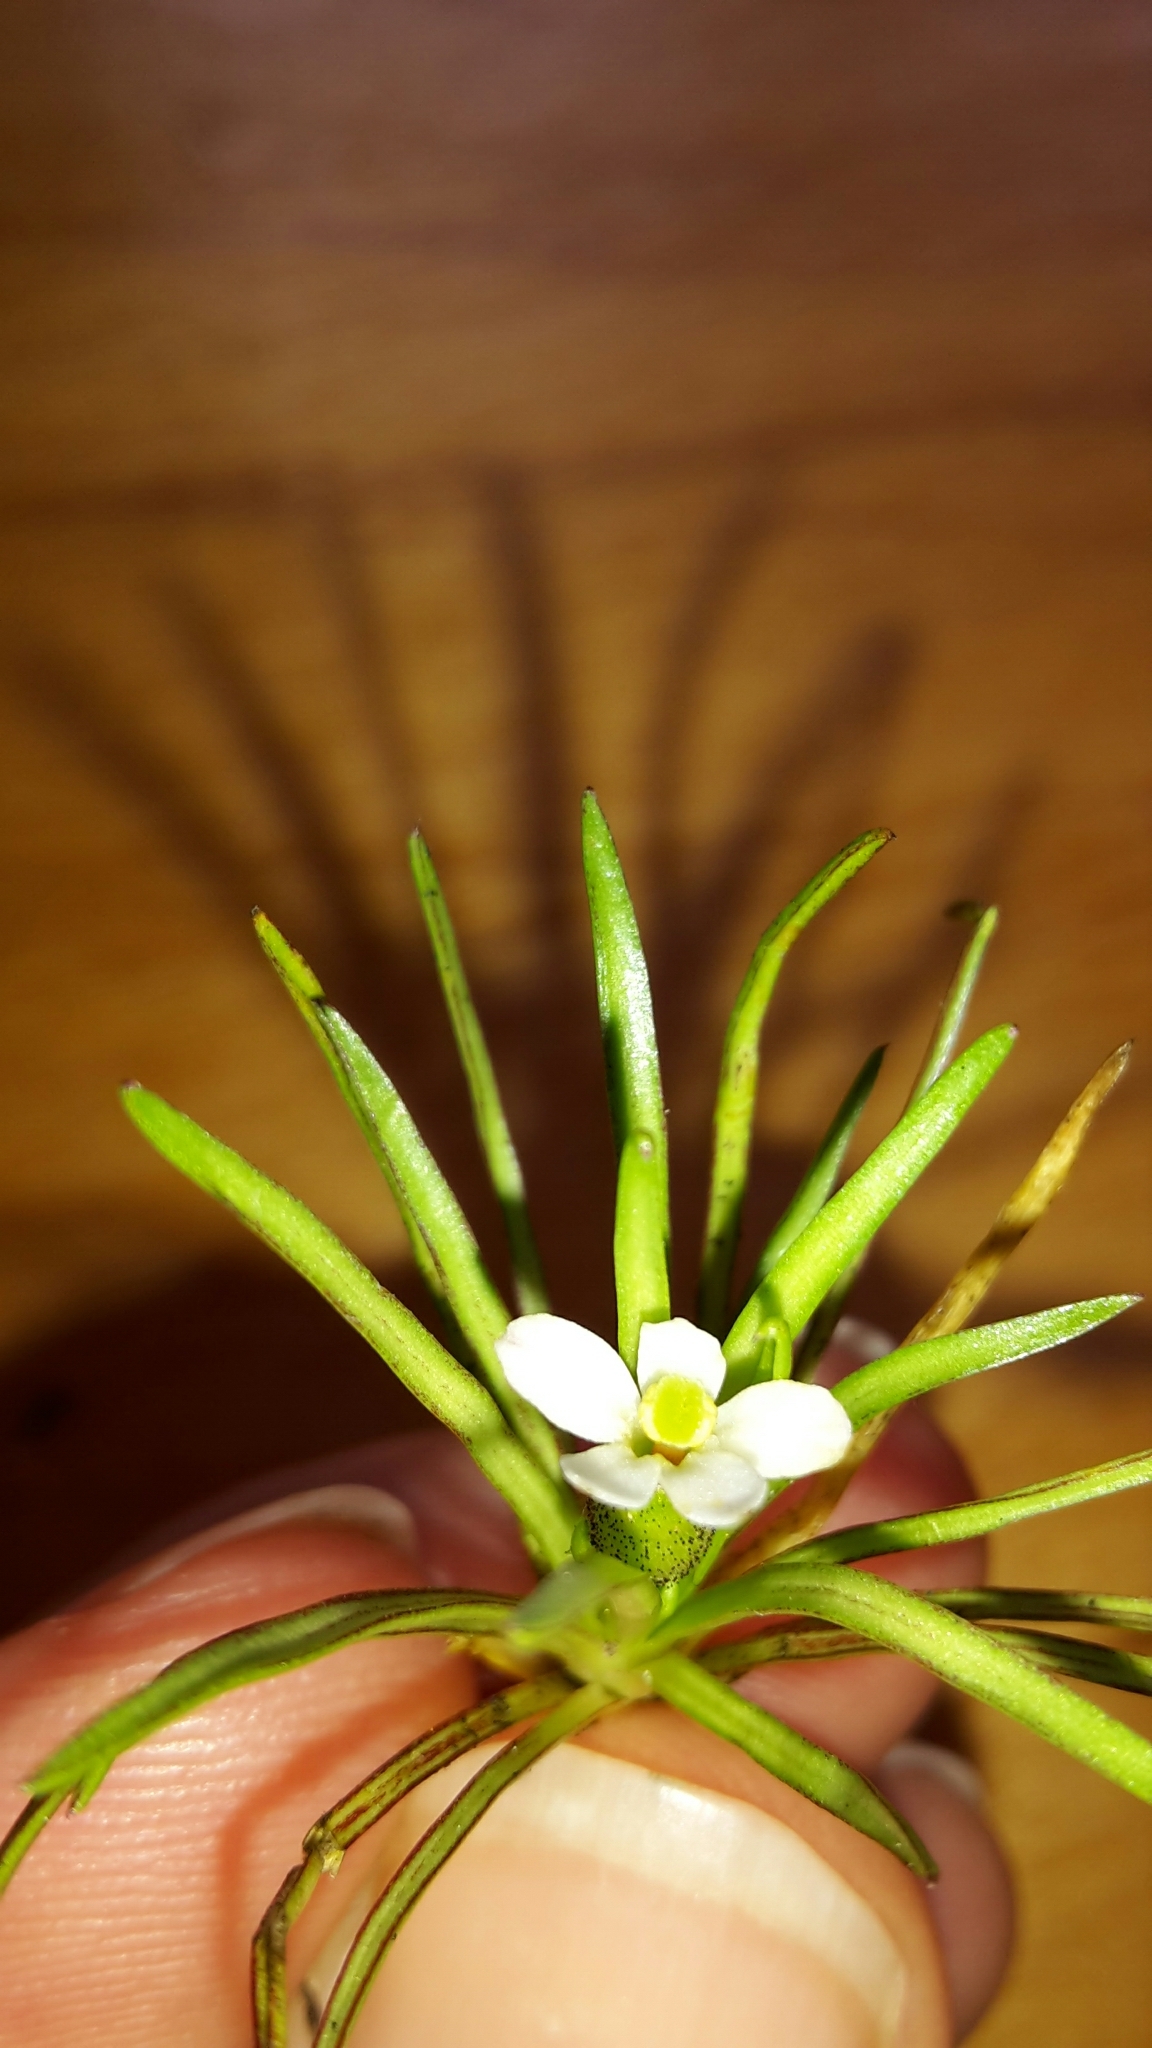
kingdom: Plantae
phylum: Tracheophyta
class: Magnoliopsida
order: Asterales
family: Stylidiaceae
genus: Oreostylidium
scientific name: Oreostylidium subulatum
